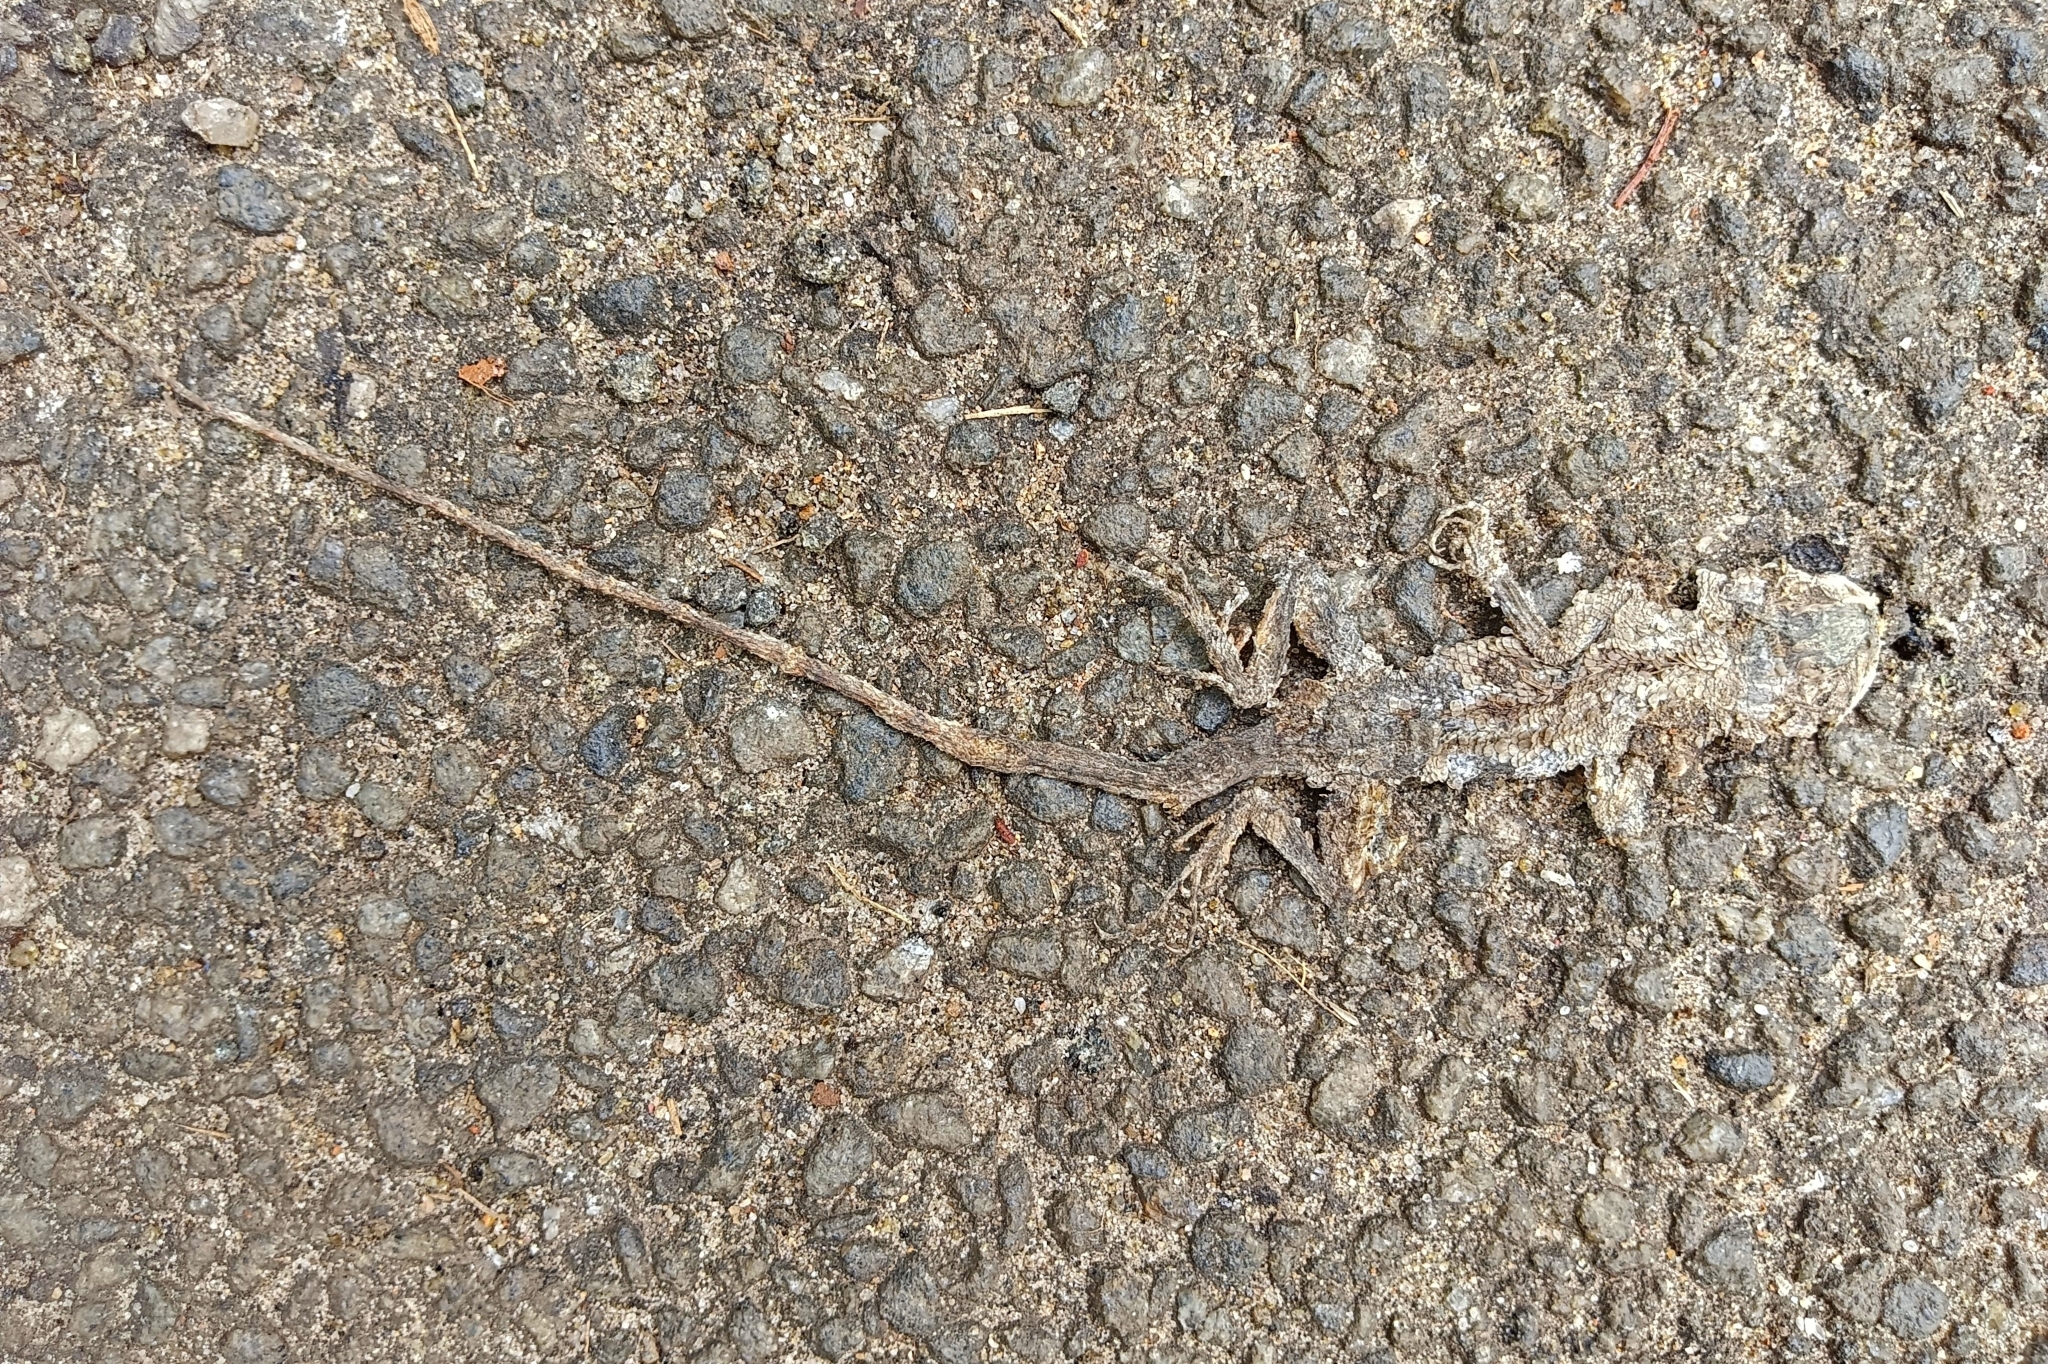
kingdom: Animalia
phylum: Chordata
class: Squamata
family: Agamidae
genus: Calotes
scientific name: Calotes versicolor
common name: Oriental garden lizard
